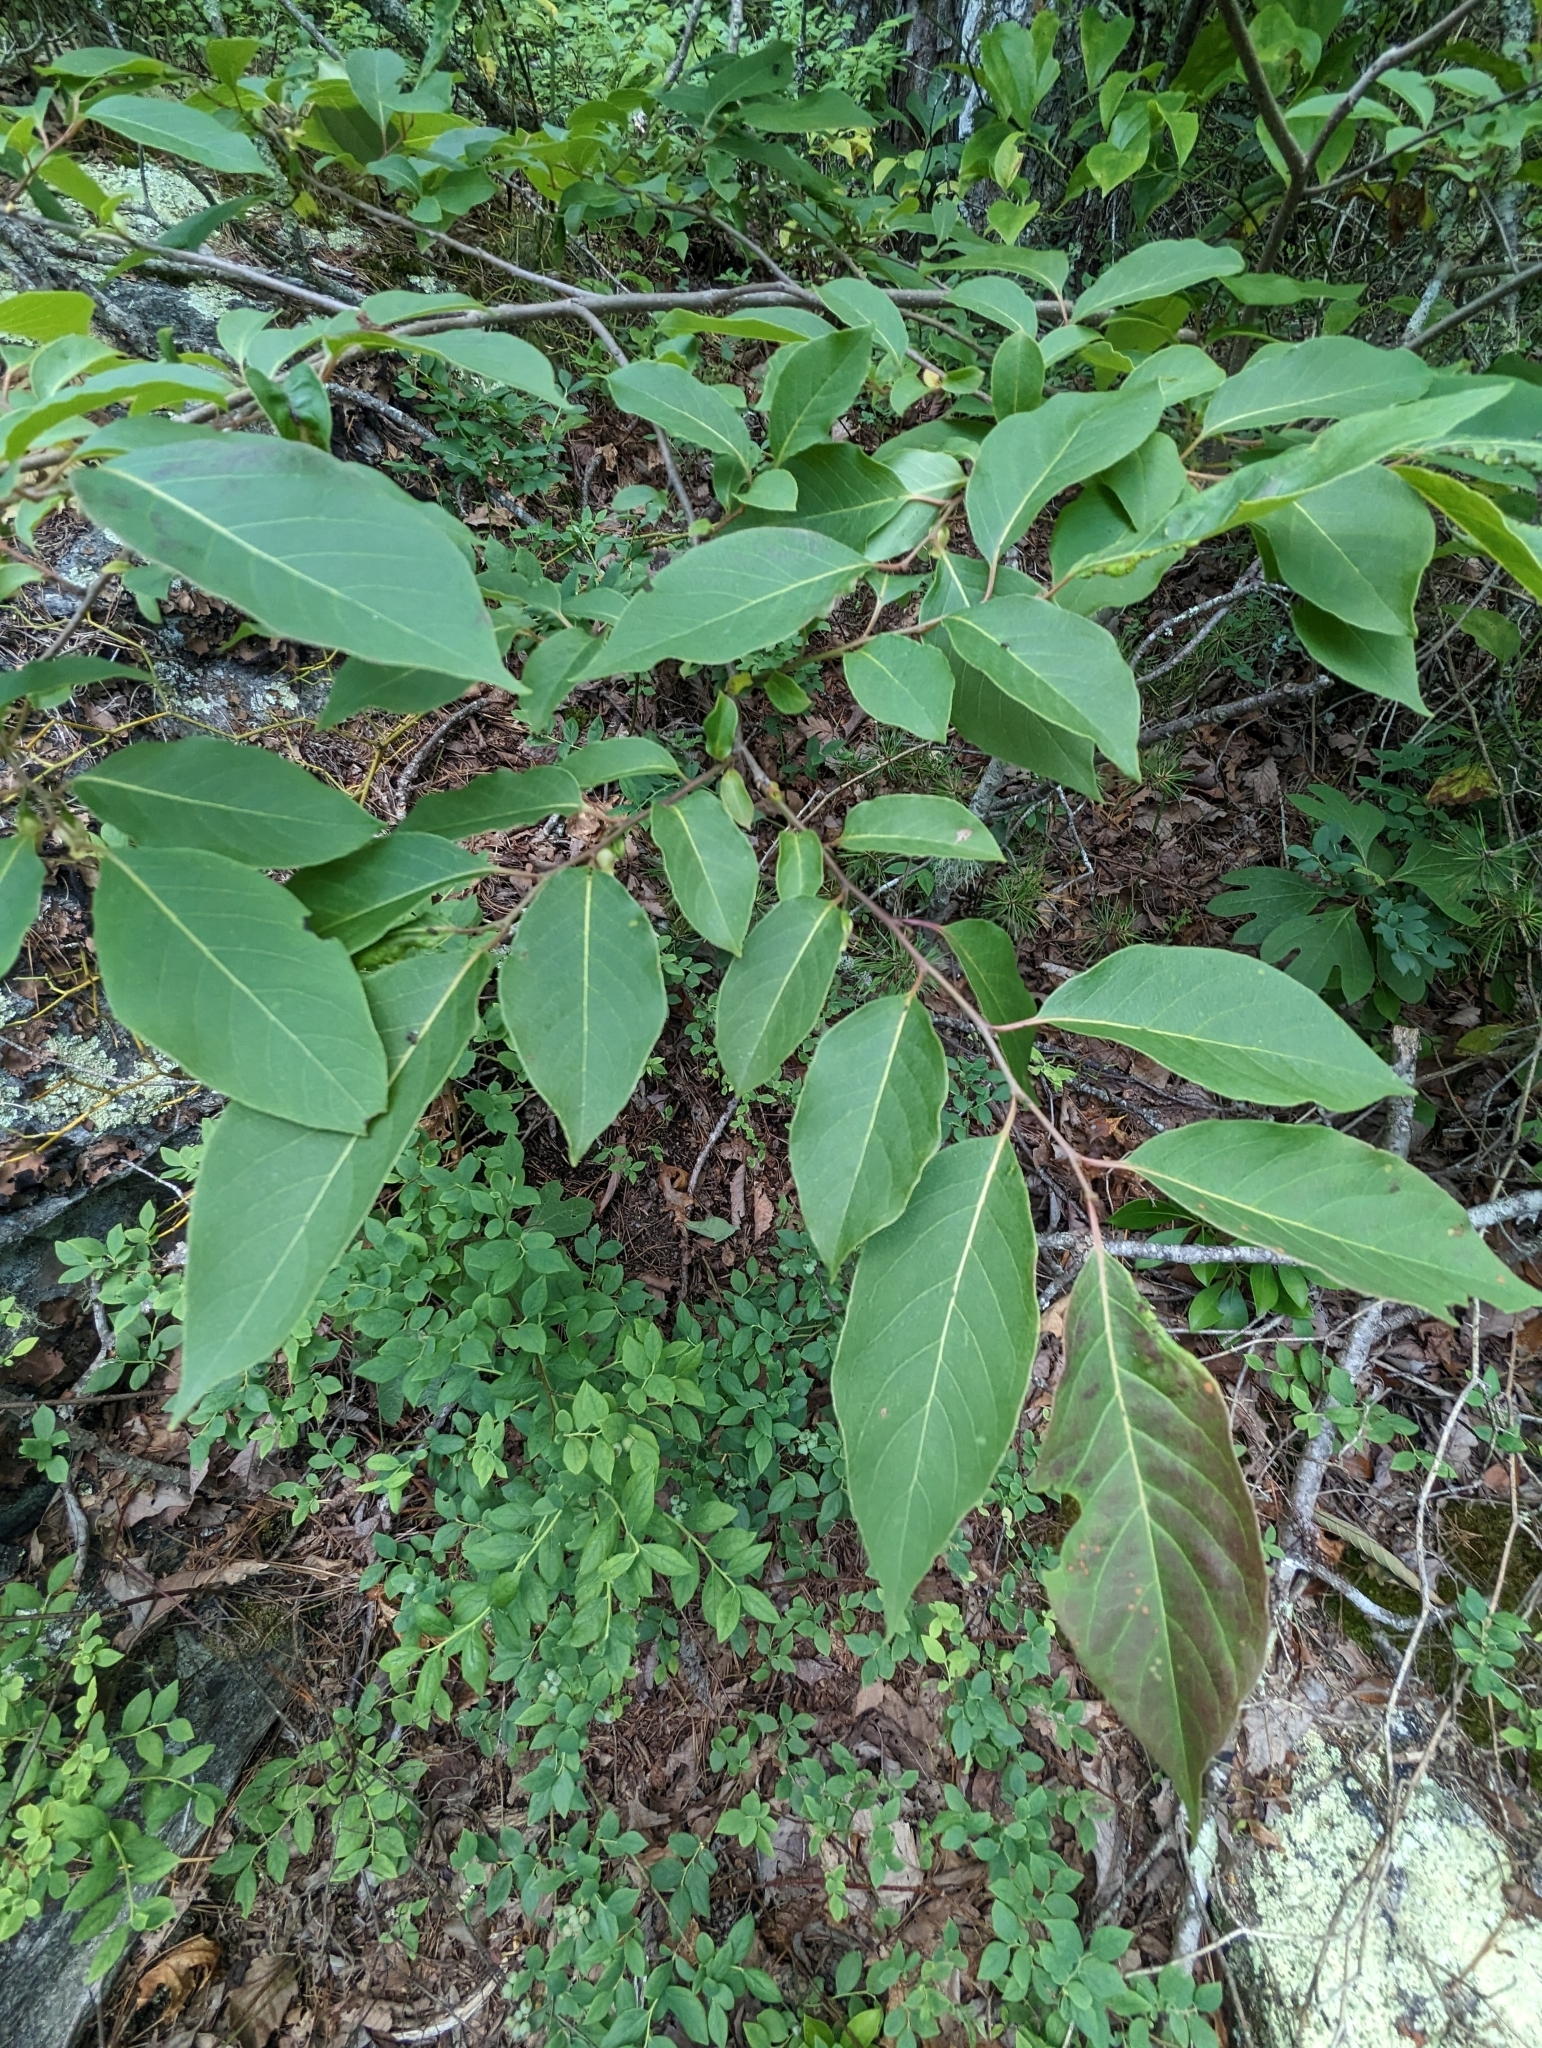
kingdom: Plantae
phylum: Tracheophyta
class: Magnoliopsida
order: Ericales
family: Ebenaceae
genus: Diospyros
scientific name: Diospyros virginiana
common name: Persimmon
